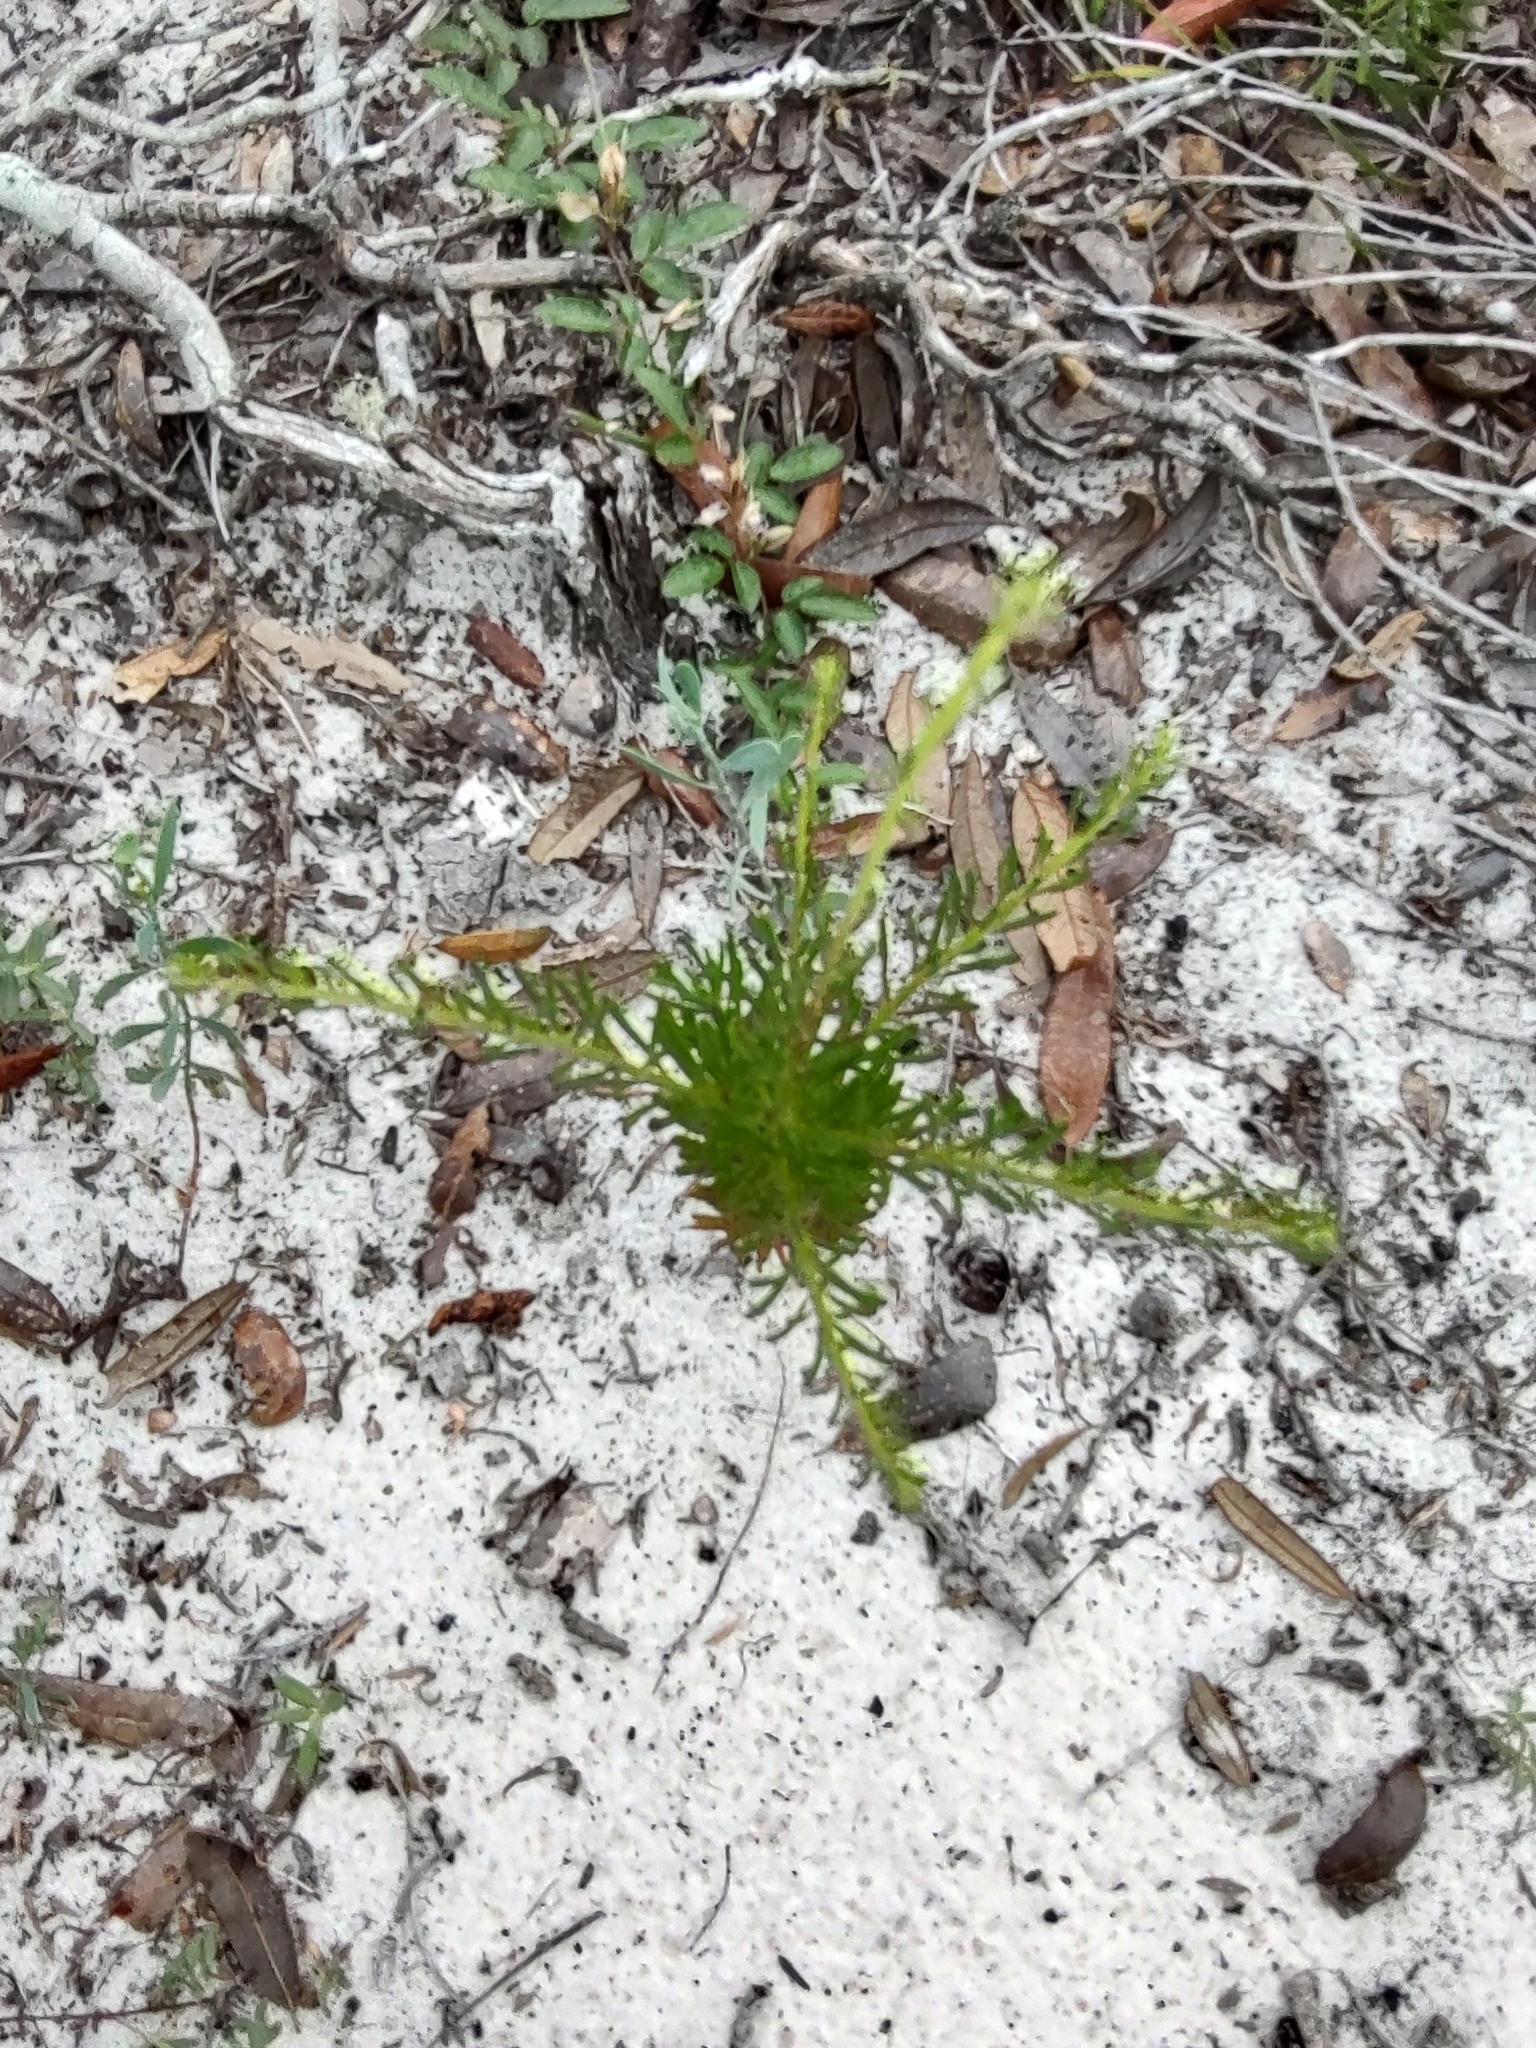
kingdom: Plantae
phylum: Tracheophyta
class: Magnoliopsida
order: Asterales
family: Asteraceae
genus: Balduina
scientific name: Balduina angustifolia
